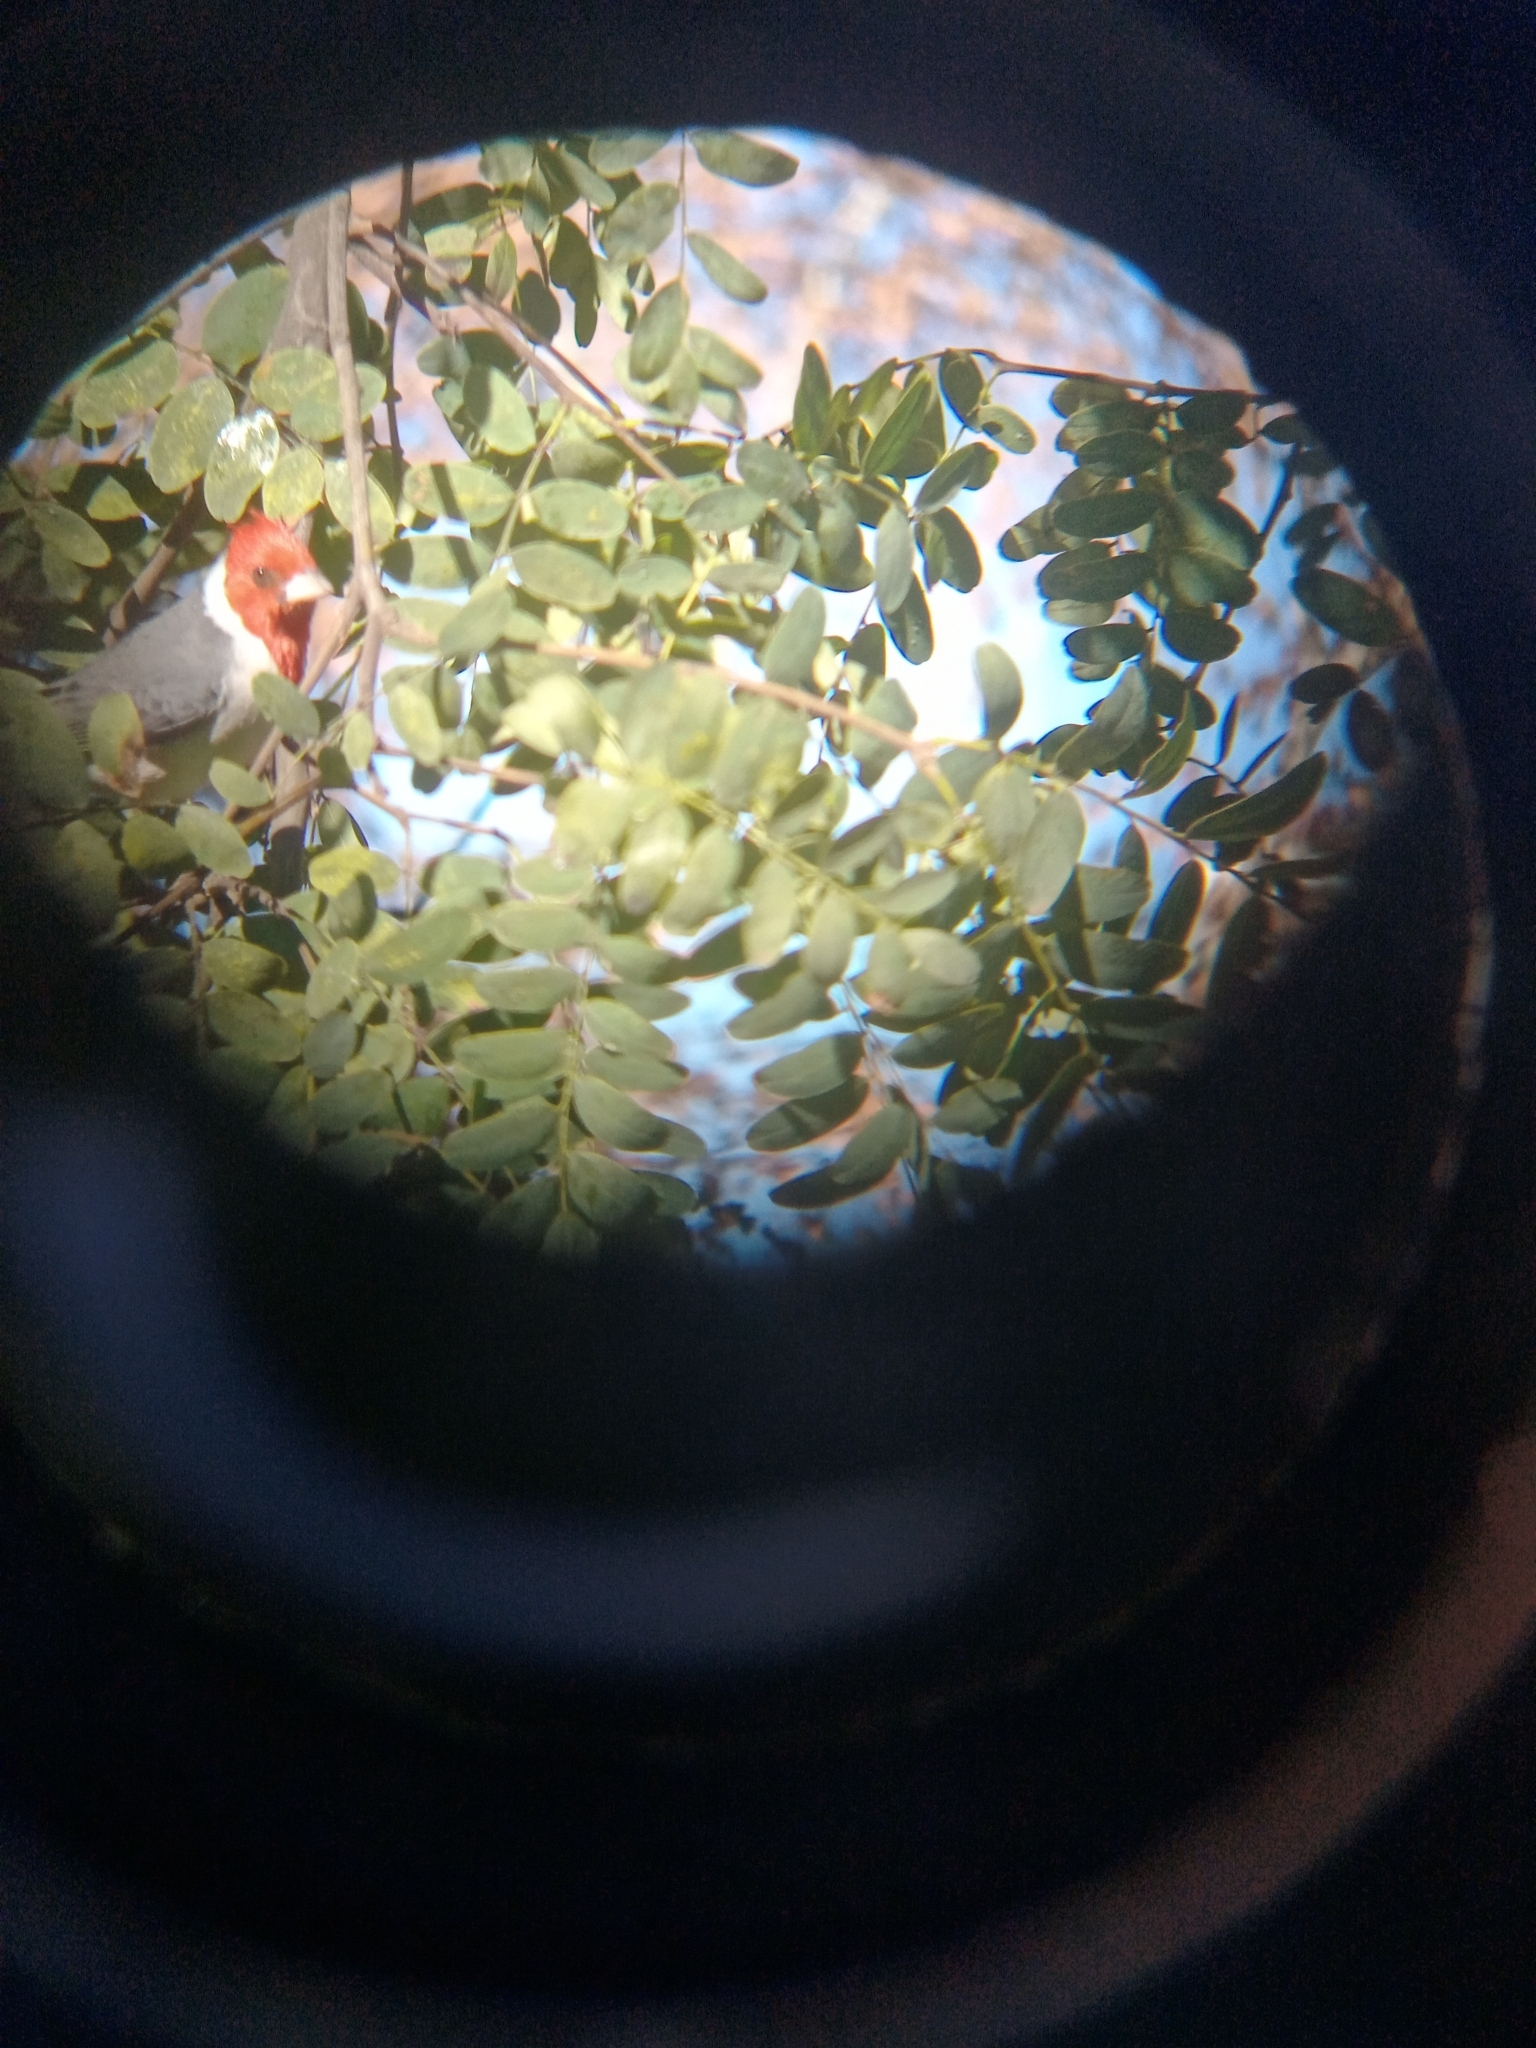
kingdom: Animalia
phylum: Chordata
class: Aves
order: Passeriformes
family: Thraupidae
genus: Paroaria
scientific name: Paroaria coronata
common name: Red-crested cardinal
